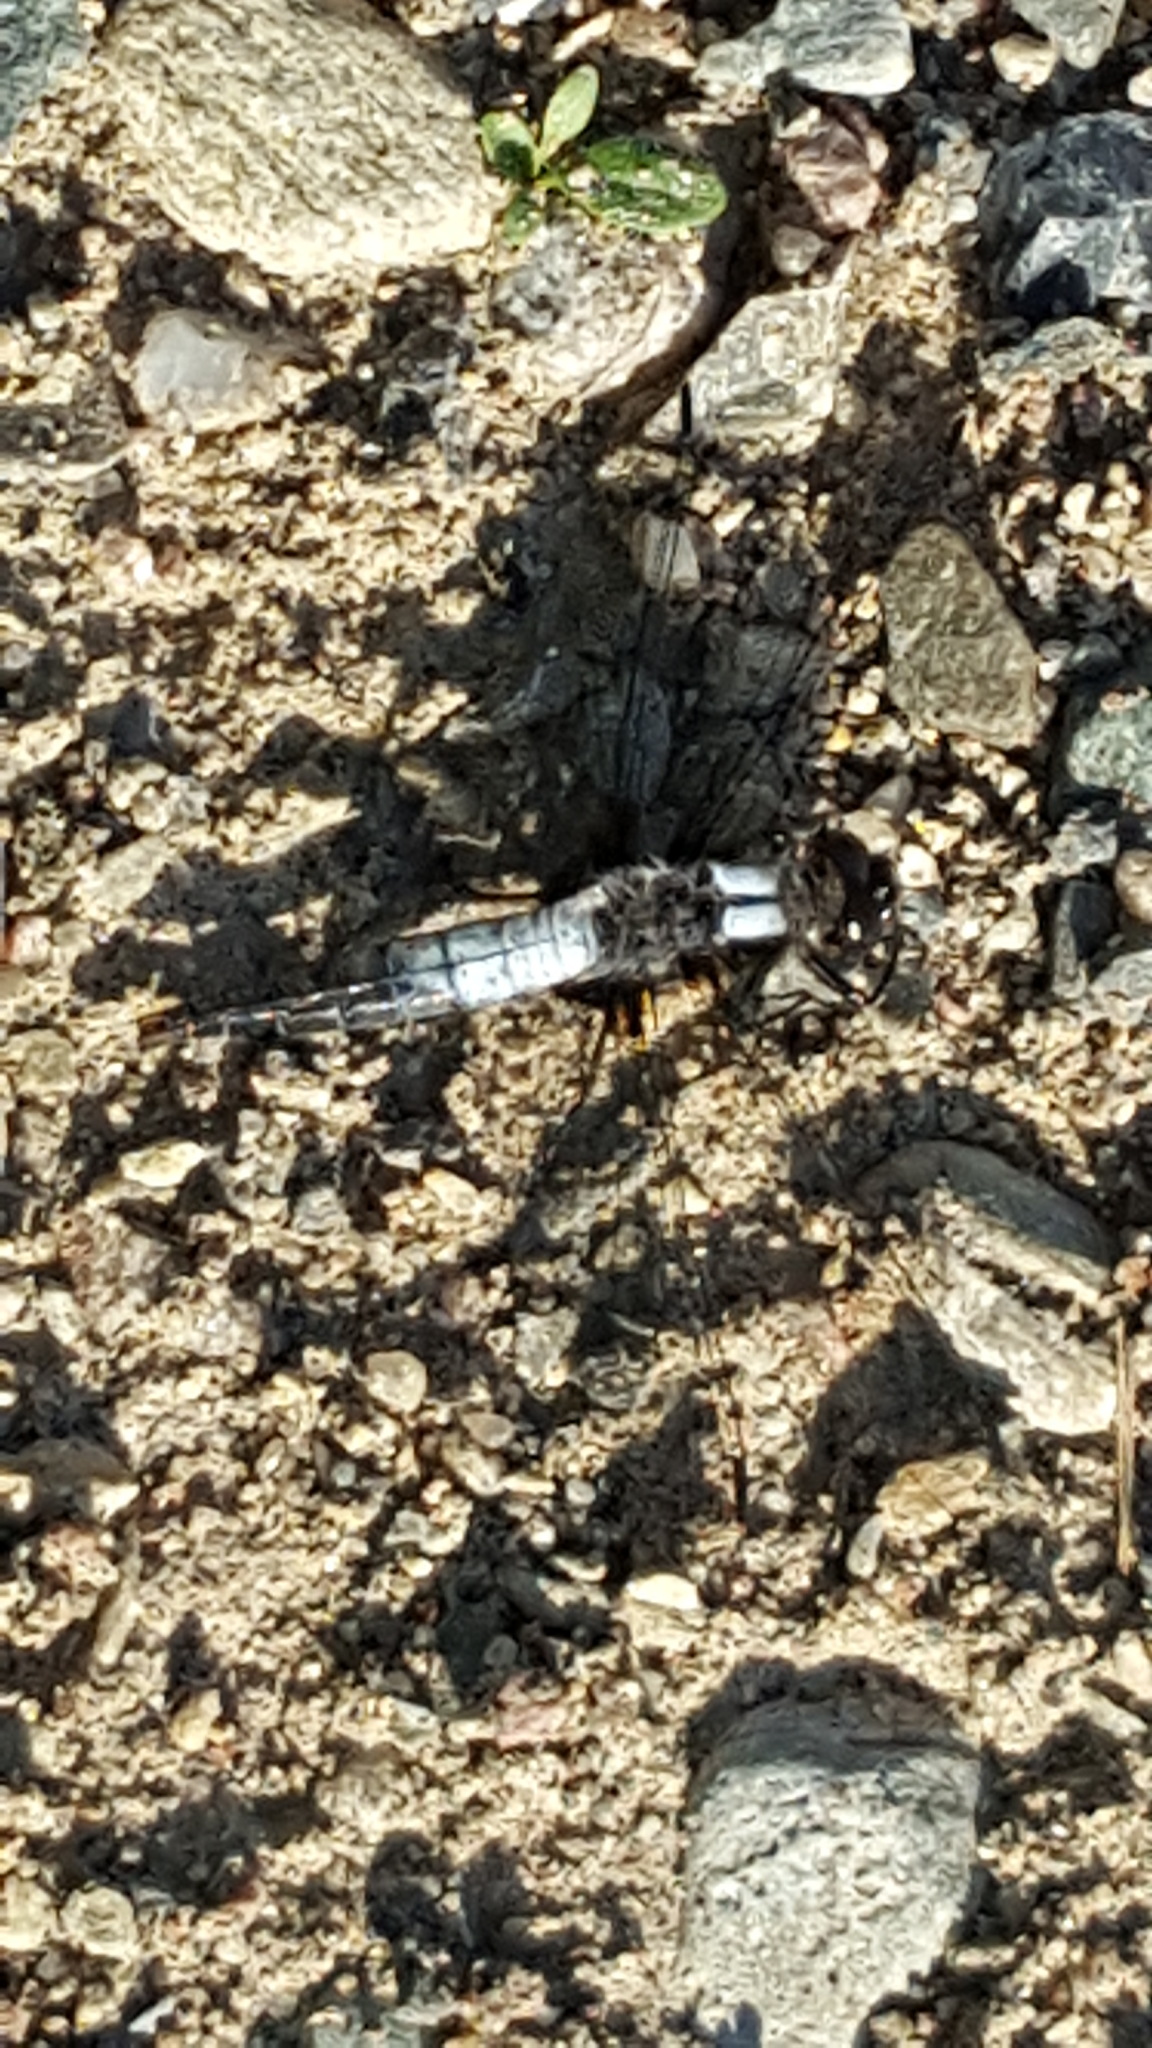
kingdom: Animalia
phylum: Arthropoda
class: Insecta
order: Odonata
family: Libellulidae
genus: Ladona
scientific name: Ladona julia
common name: Chalk-fronted corporal
